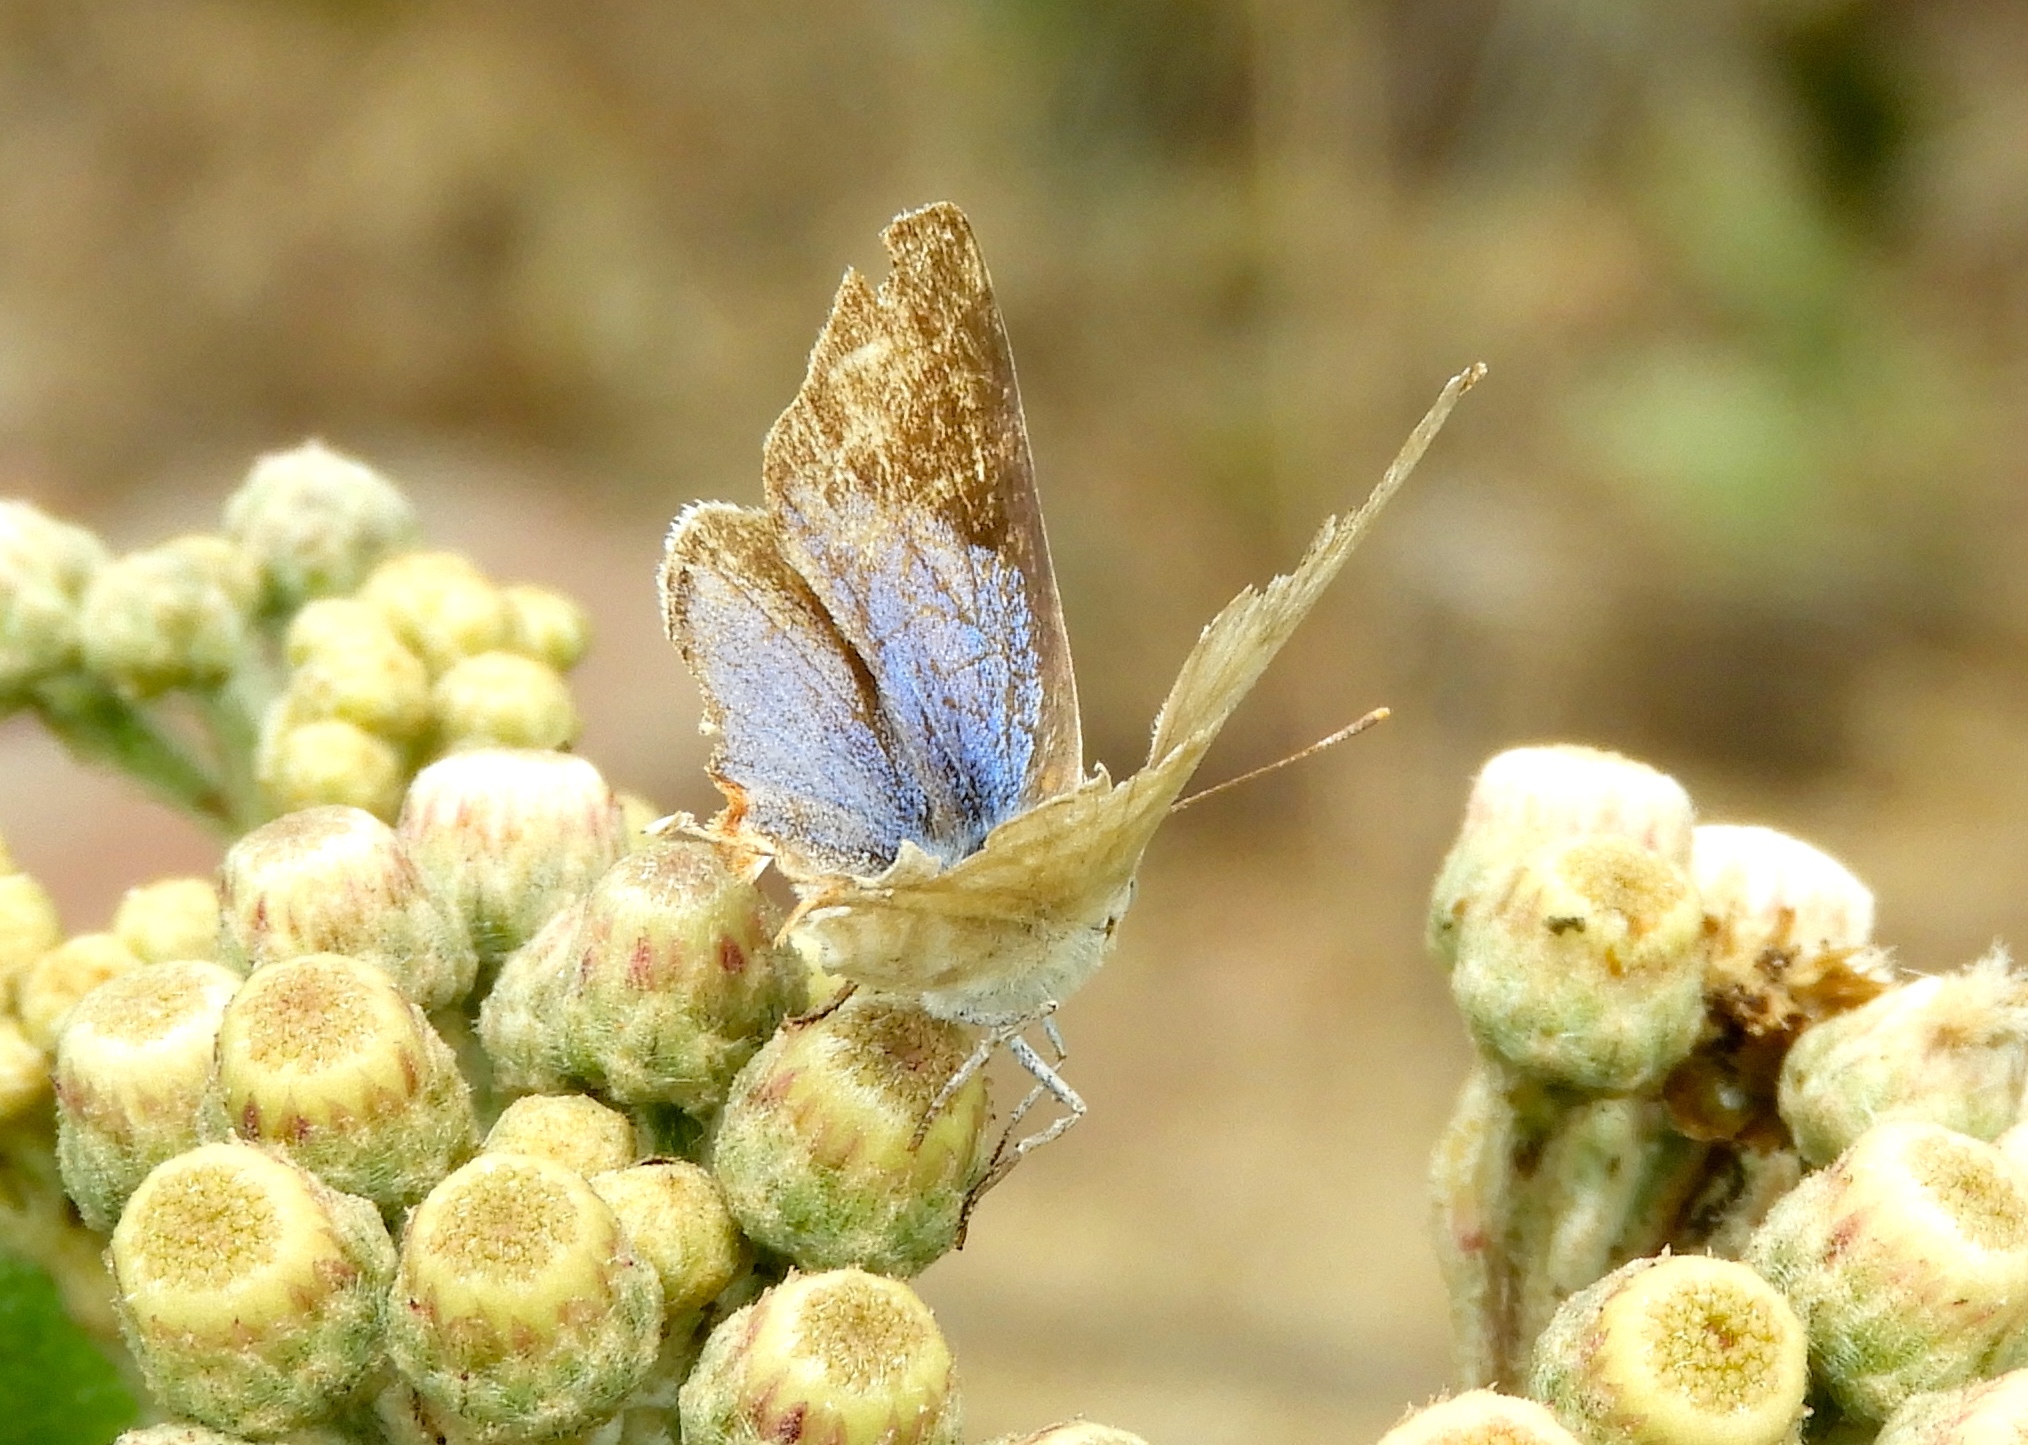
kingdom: Animalia
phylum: Arthropoda
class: Insecta
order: Lepidoptera
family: Lycaenidae
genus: Dolymorpha
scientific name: Dolymorpha jada
